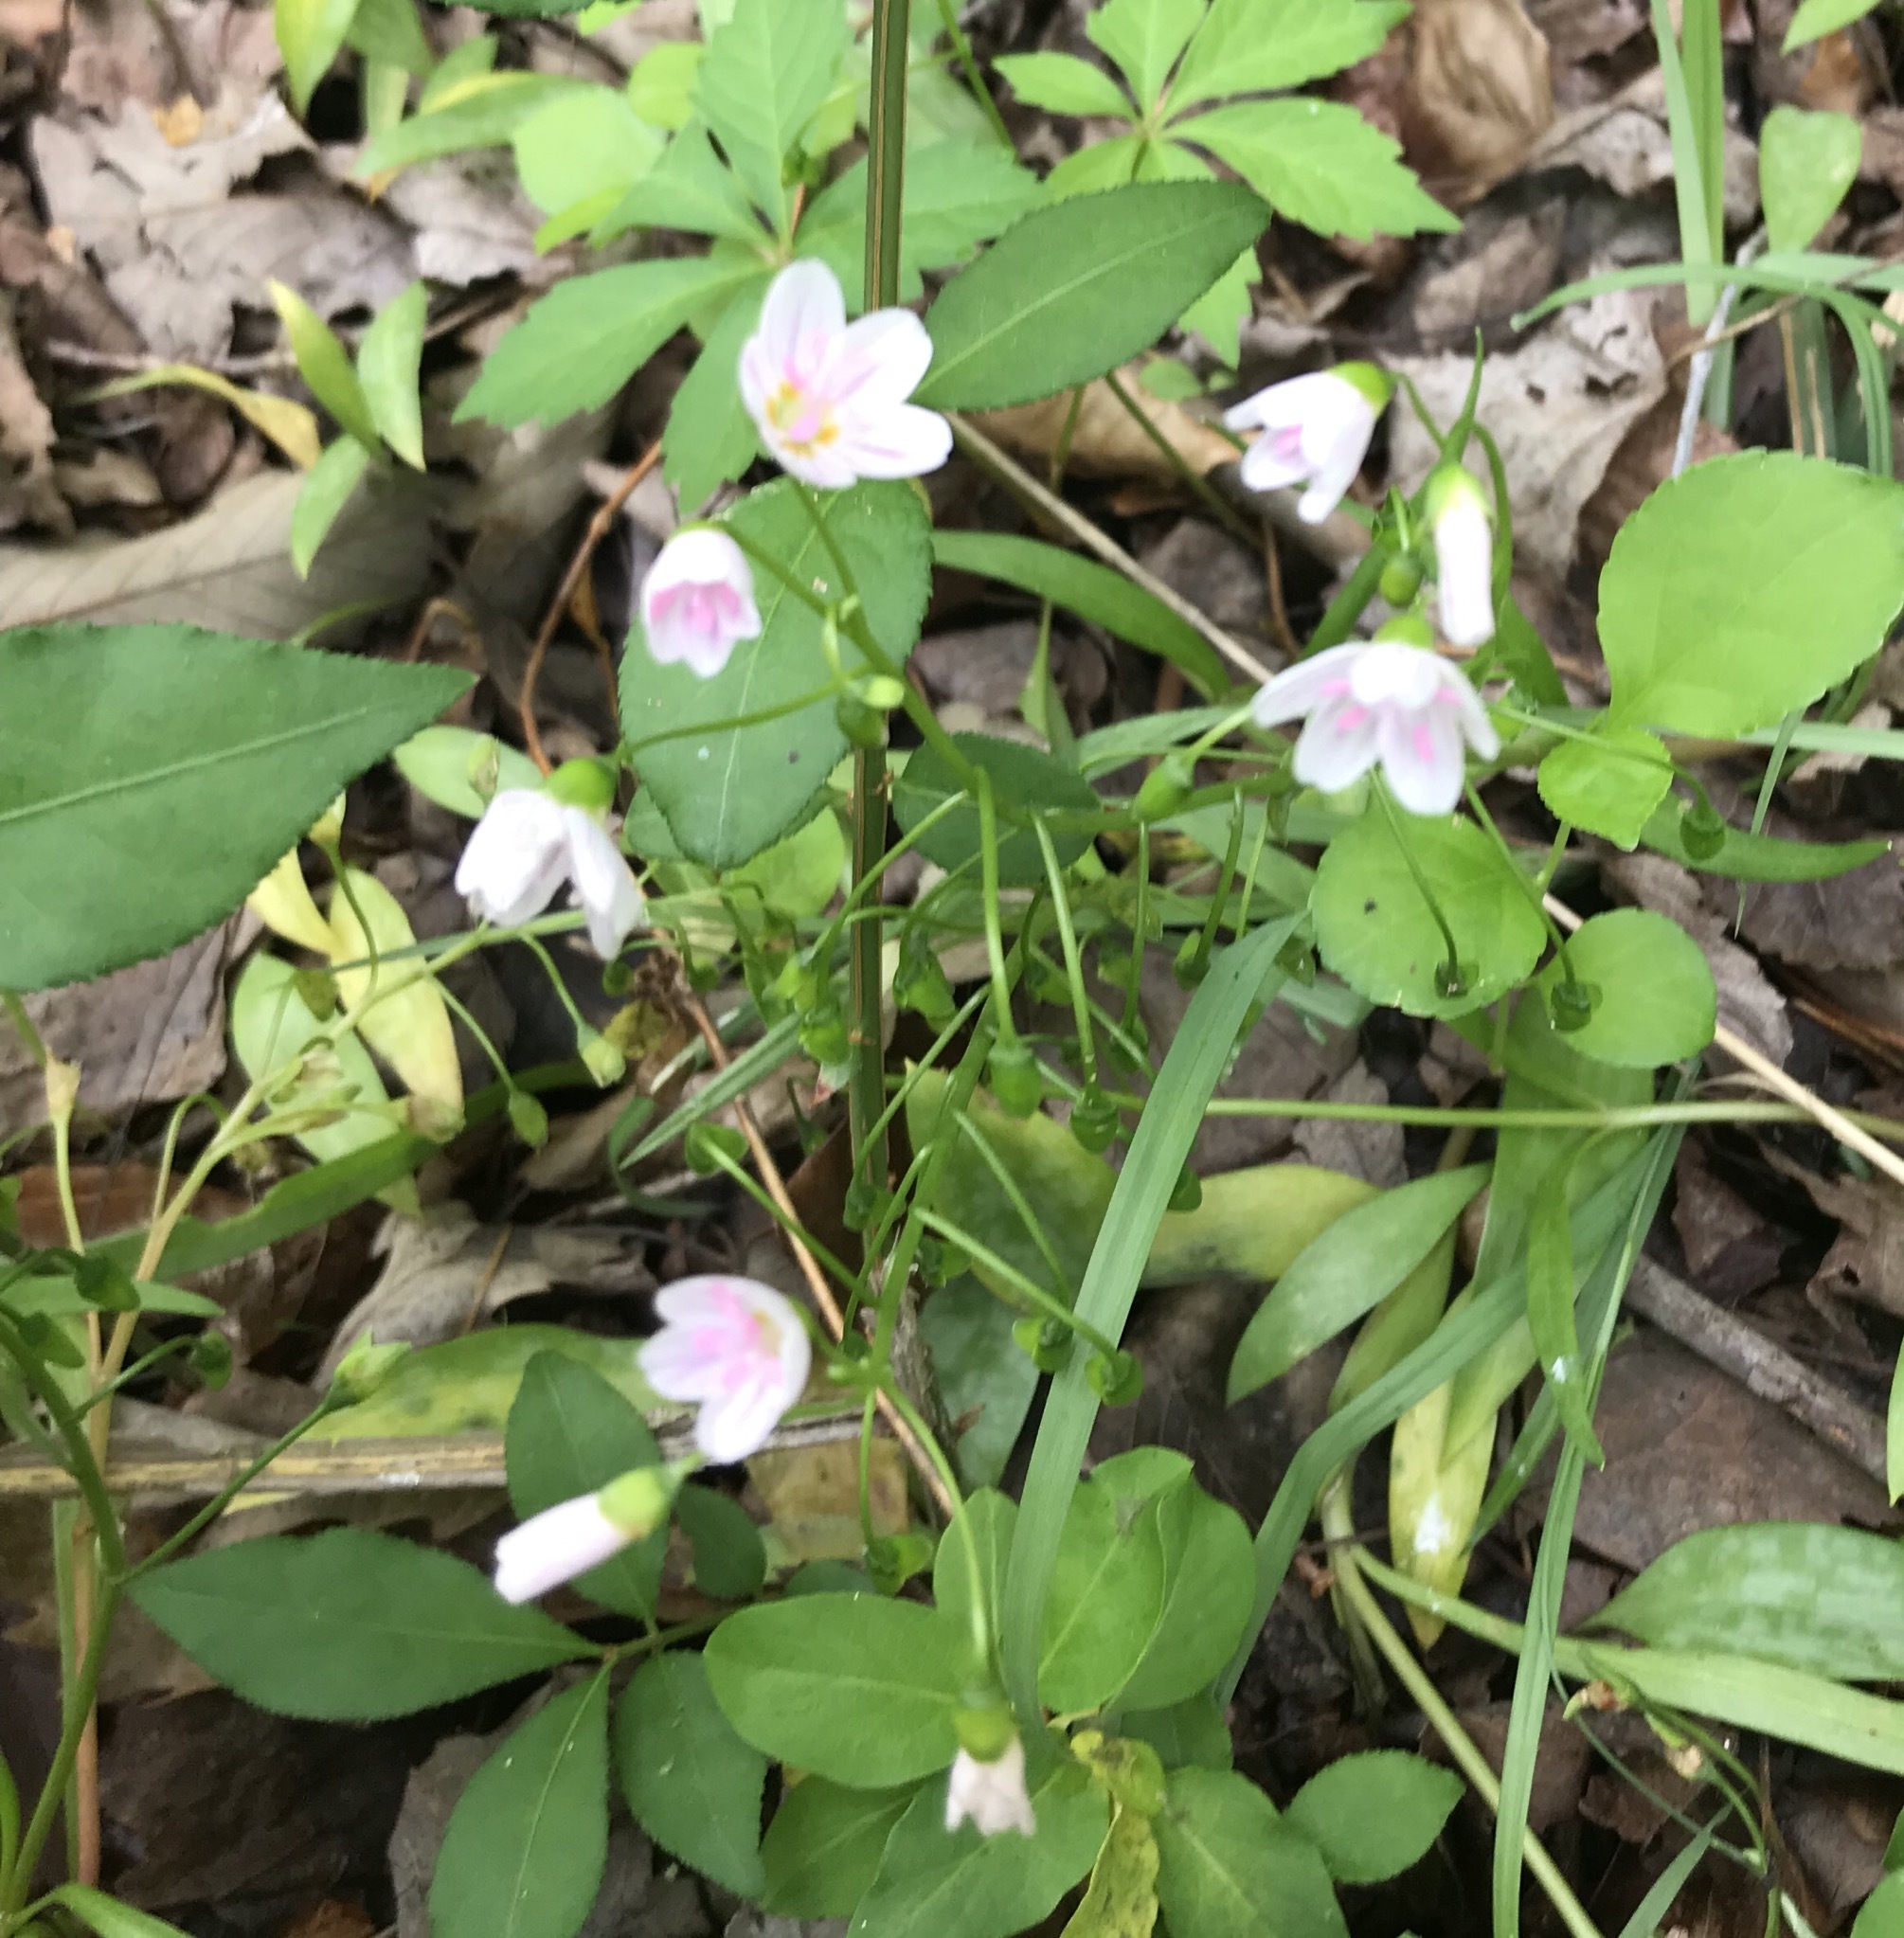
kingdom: Plantae
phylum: Tracheophyta
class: Magnoliopsida
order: Caryophyllales
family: Montiaceae
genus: Claytonia
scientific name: Claytonia virginica
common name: Virginia springbeauty
